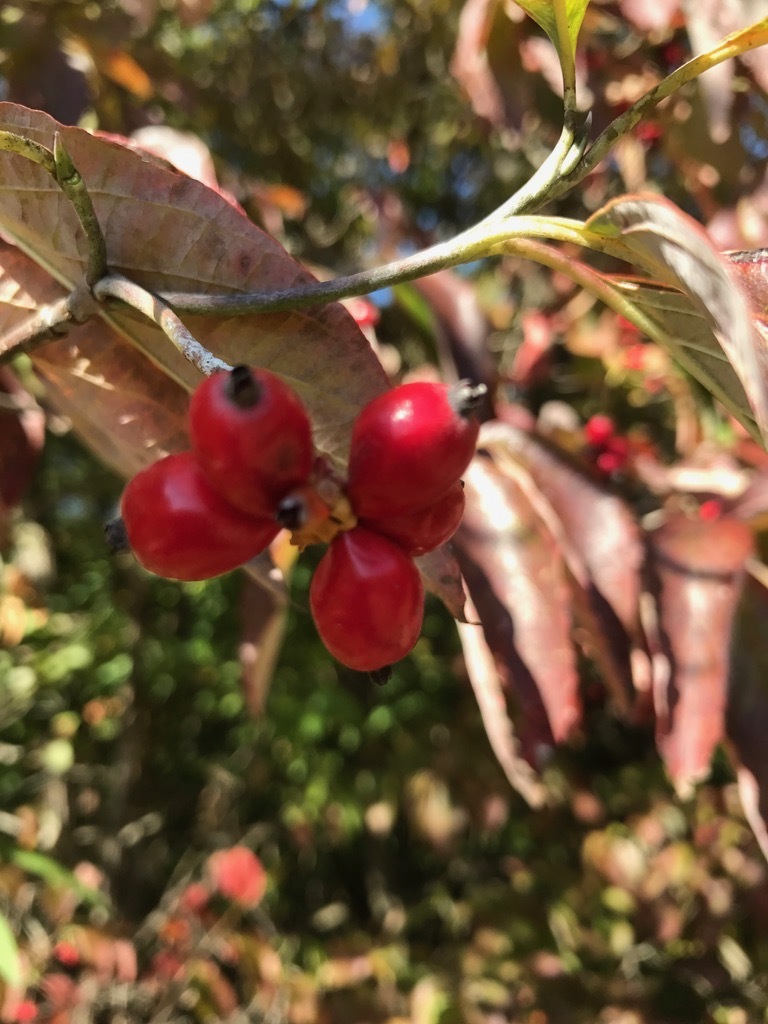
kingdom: Plantae
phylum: Tracheophyta
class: Magnoliopsida
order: Cornales
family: Cornaceae
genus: Cornus
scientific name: Cornus florida
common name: Flowering dogwood
